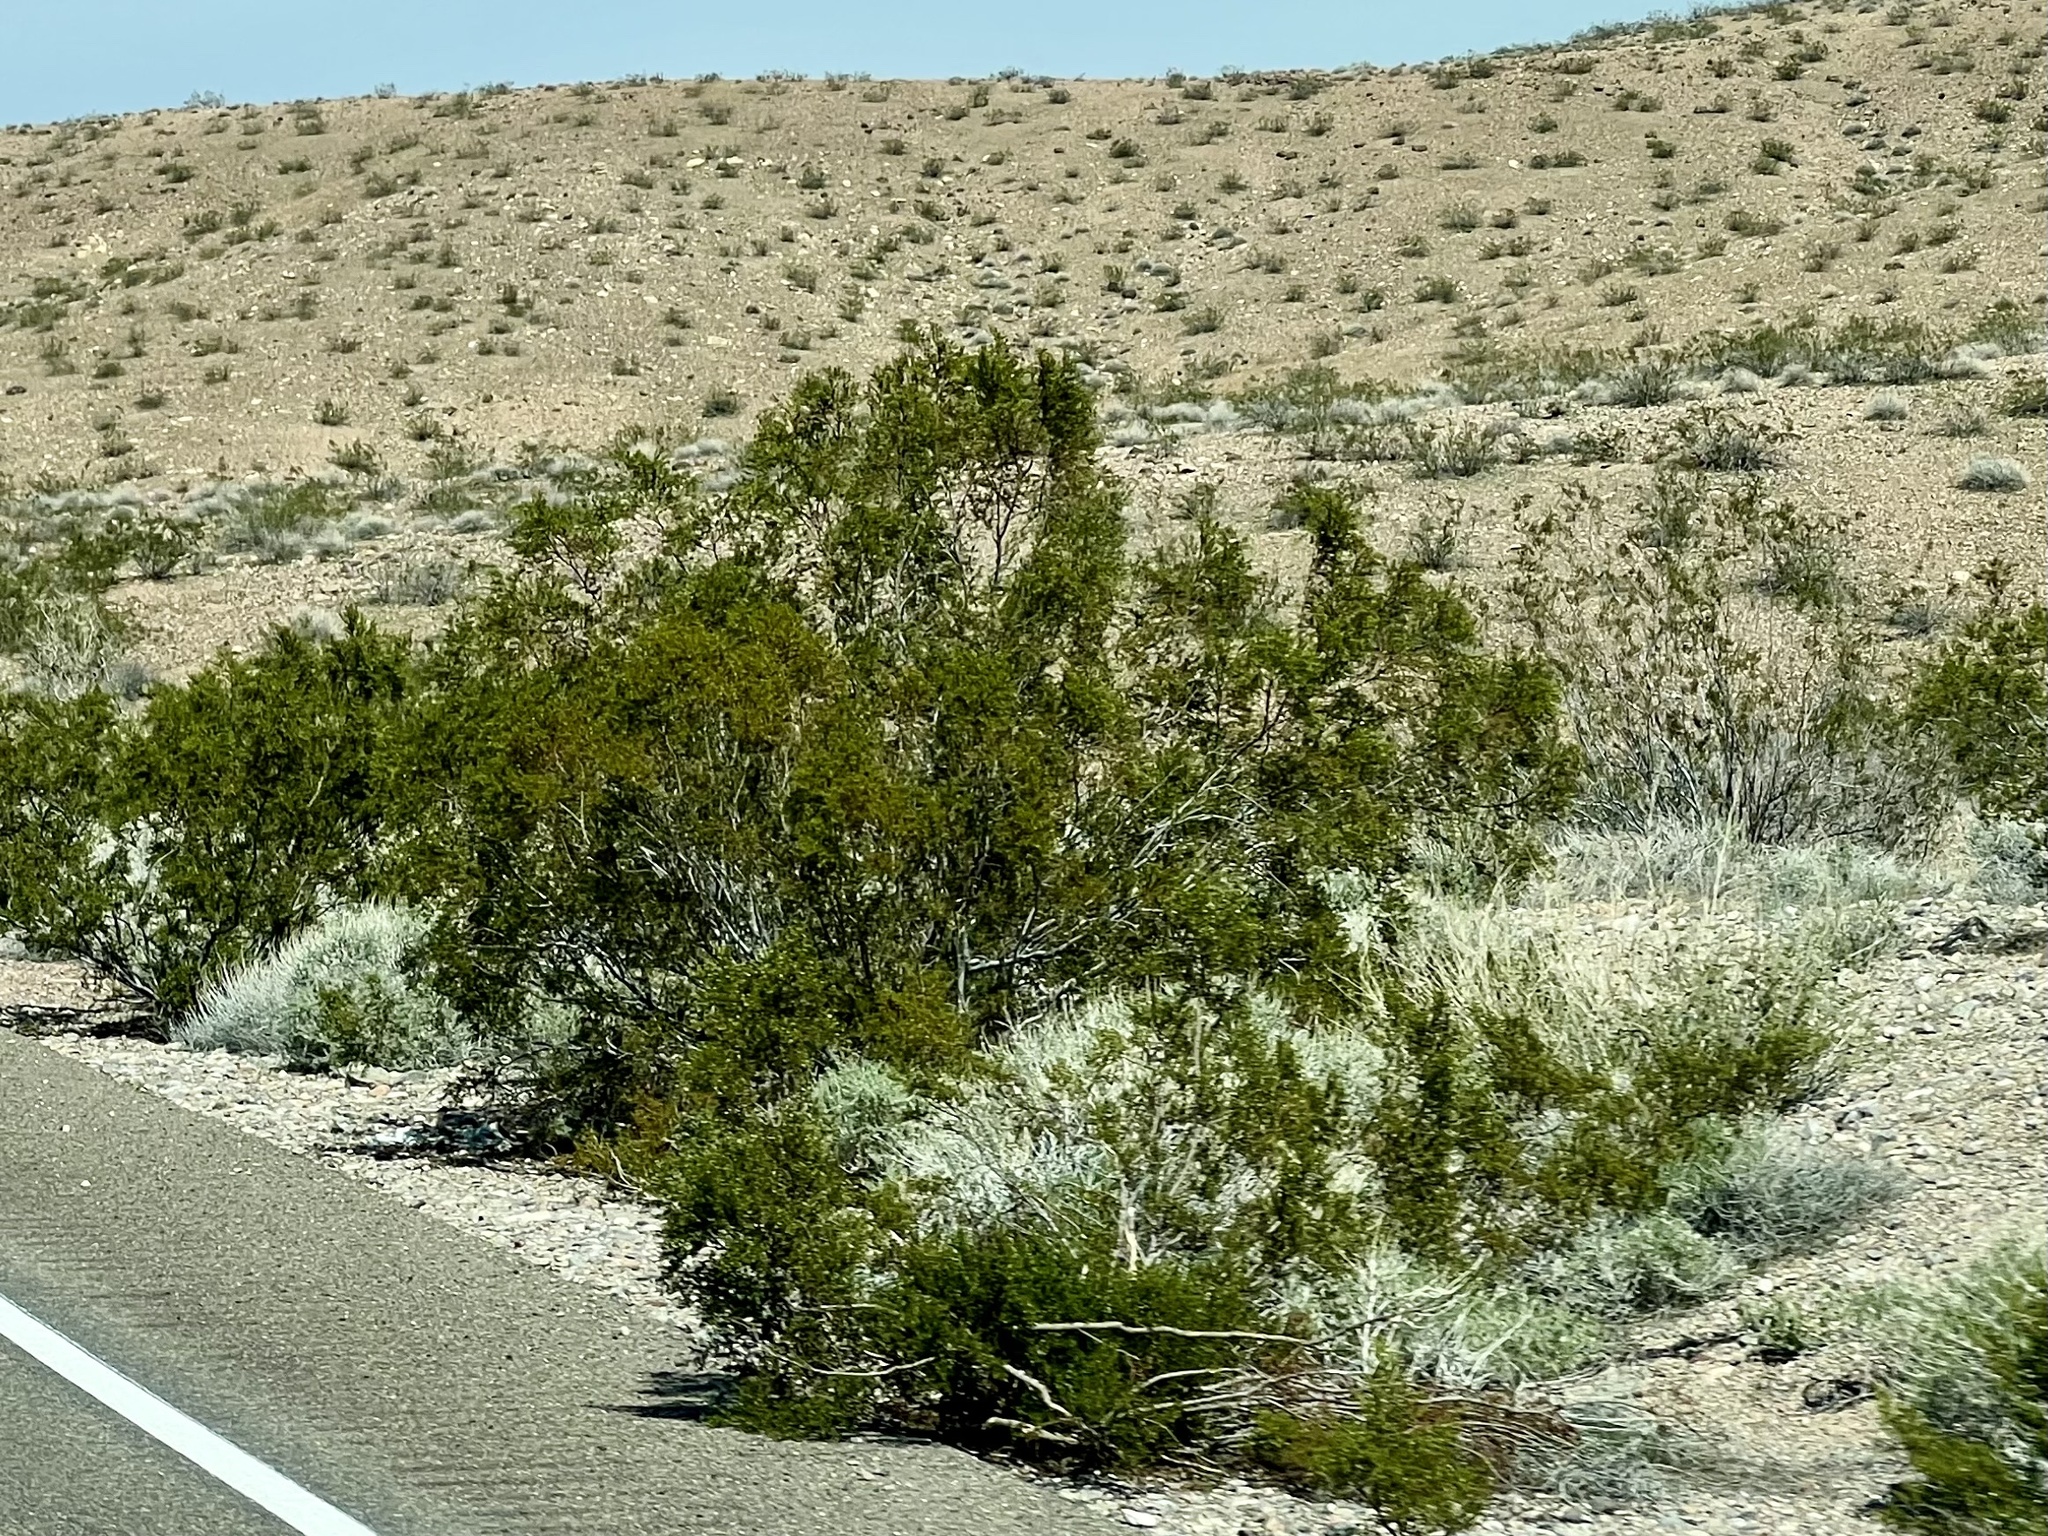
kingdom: Plantae
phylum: Tracheophyta
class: Magnoliopsida
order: Zygophyllales
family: Zygophyllaceae
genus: Larrea
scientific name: Larrea tridentata
